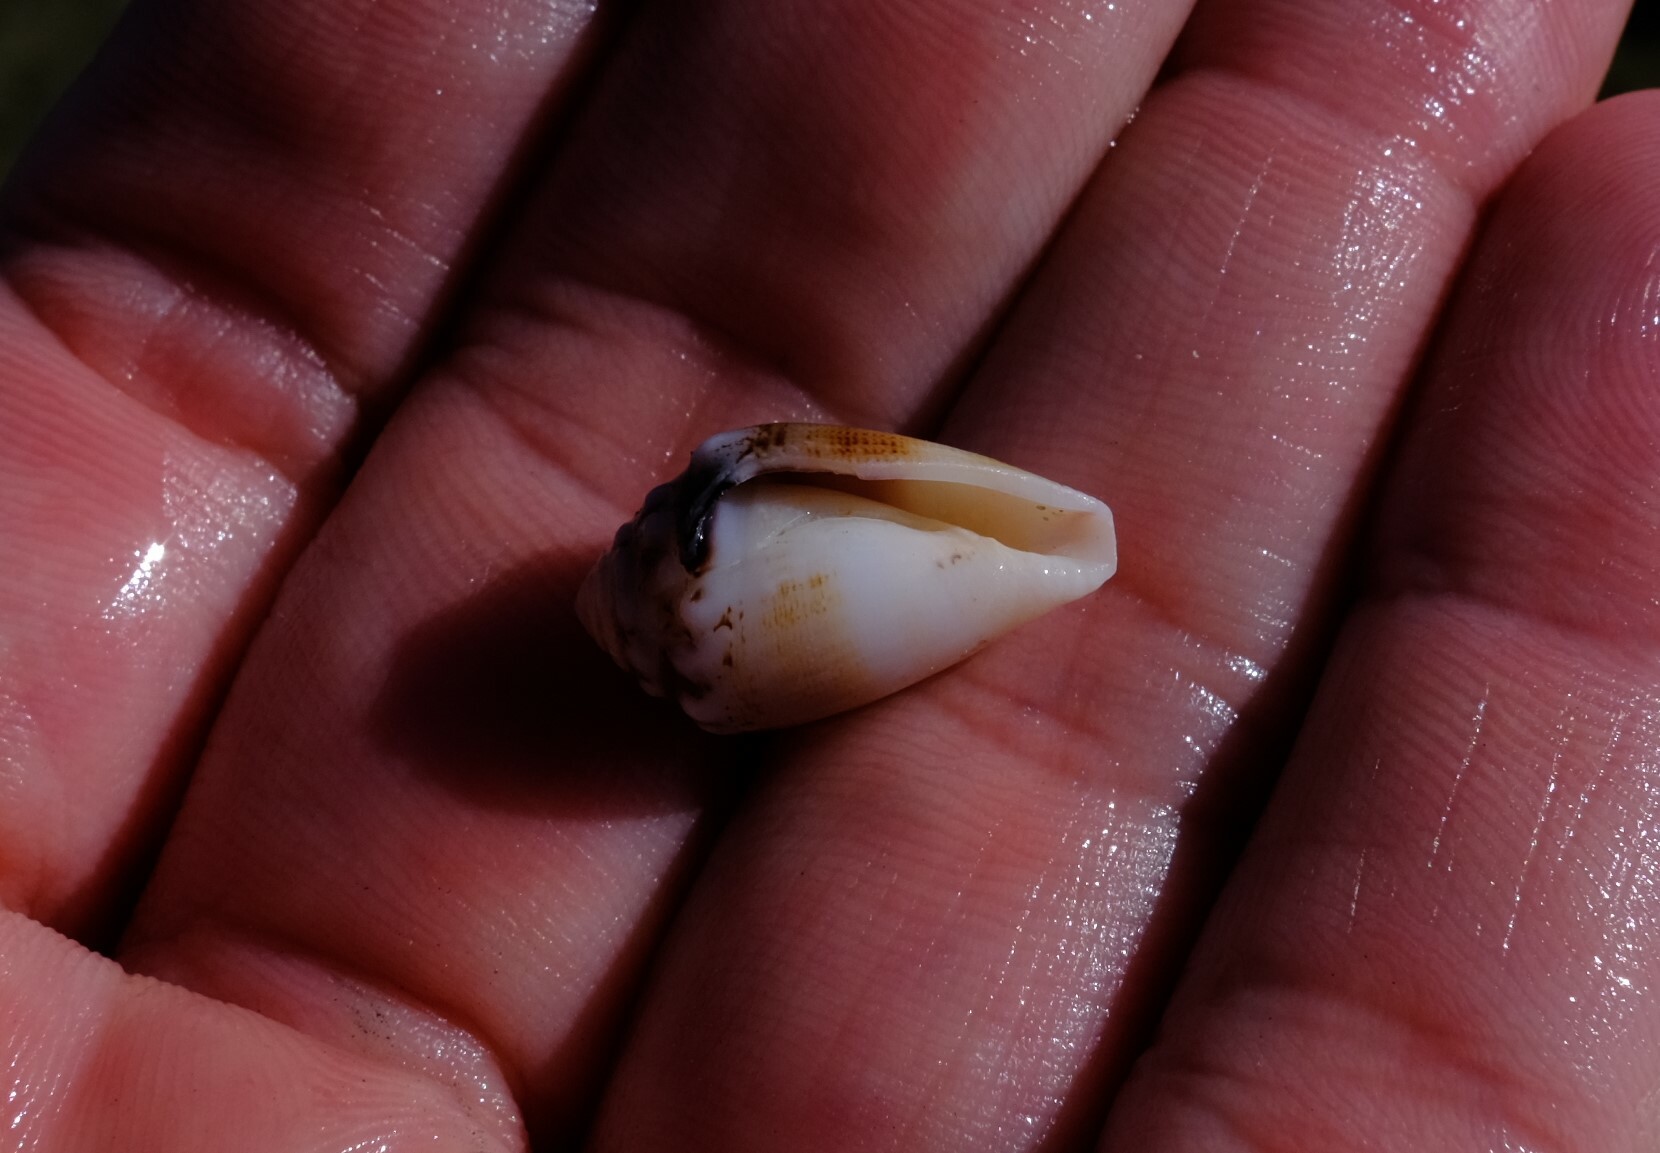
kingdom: Animalia
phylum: Mollusca
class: Gastropoda
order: Neogastropoda
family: Conidae
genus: Conus
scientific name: Conus dorreensis
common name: Pontificial cone
